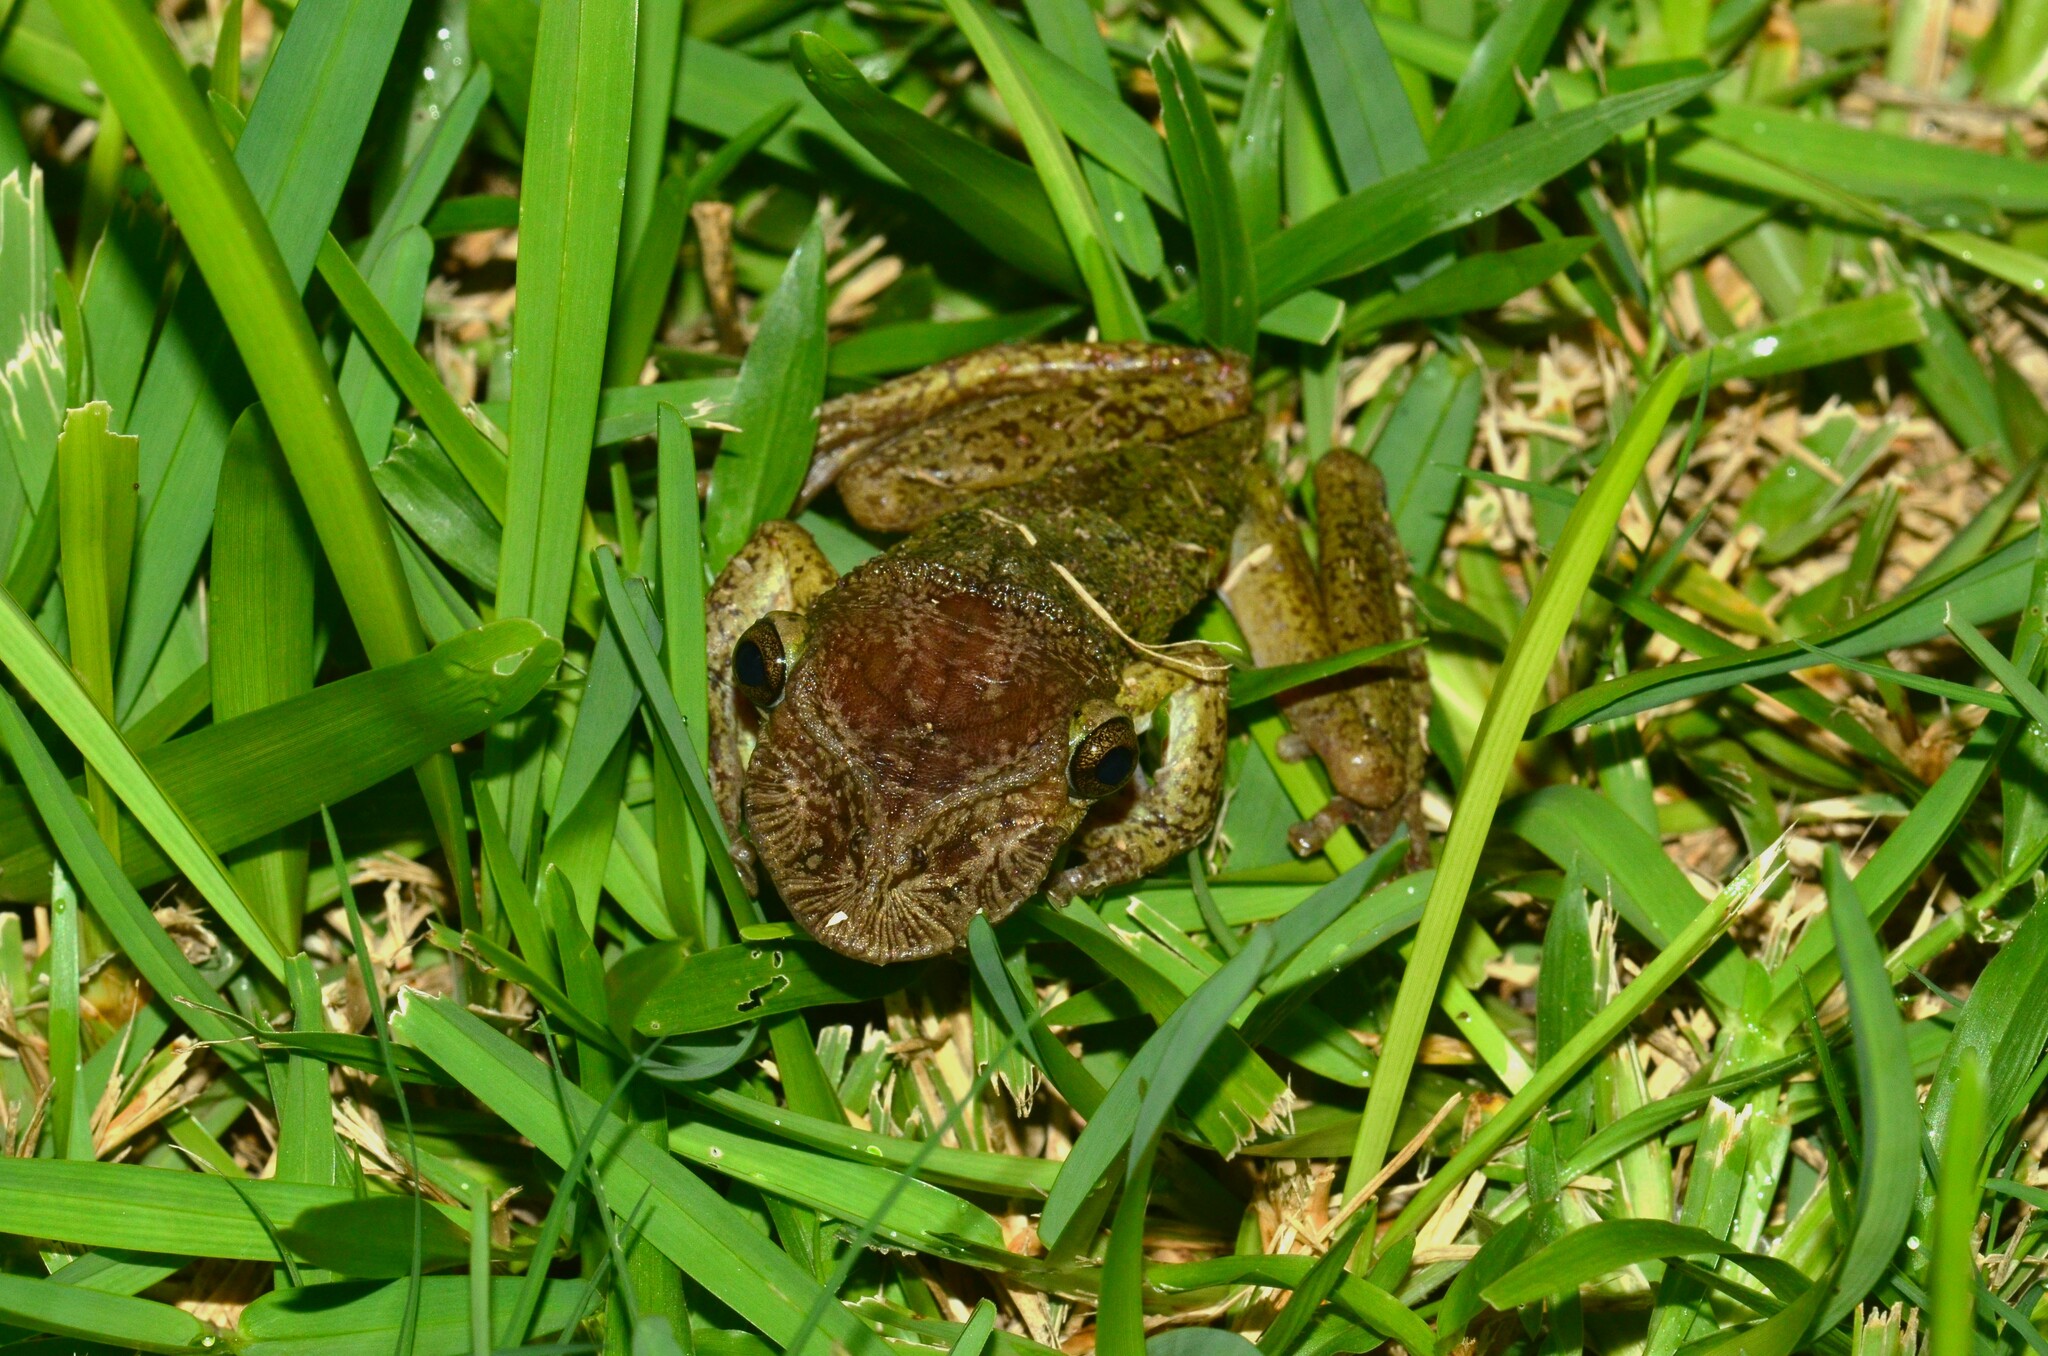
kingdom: Animalia
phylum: Chordata
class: Amphibia
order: Anura
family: Hylidae
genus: Triprion
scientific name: Triprion spatulatus
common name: Mexican shovel-headed treefrog
